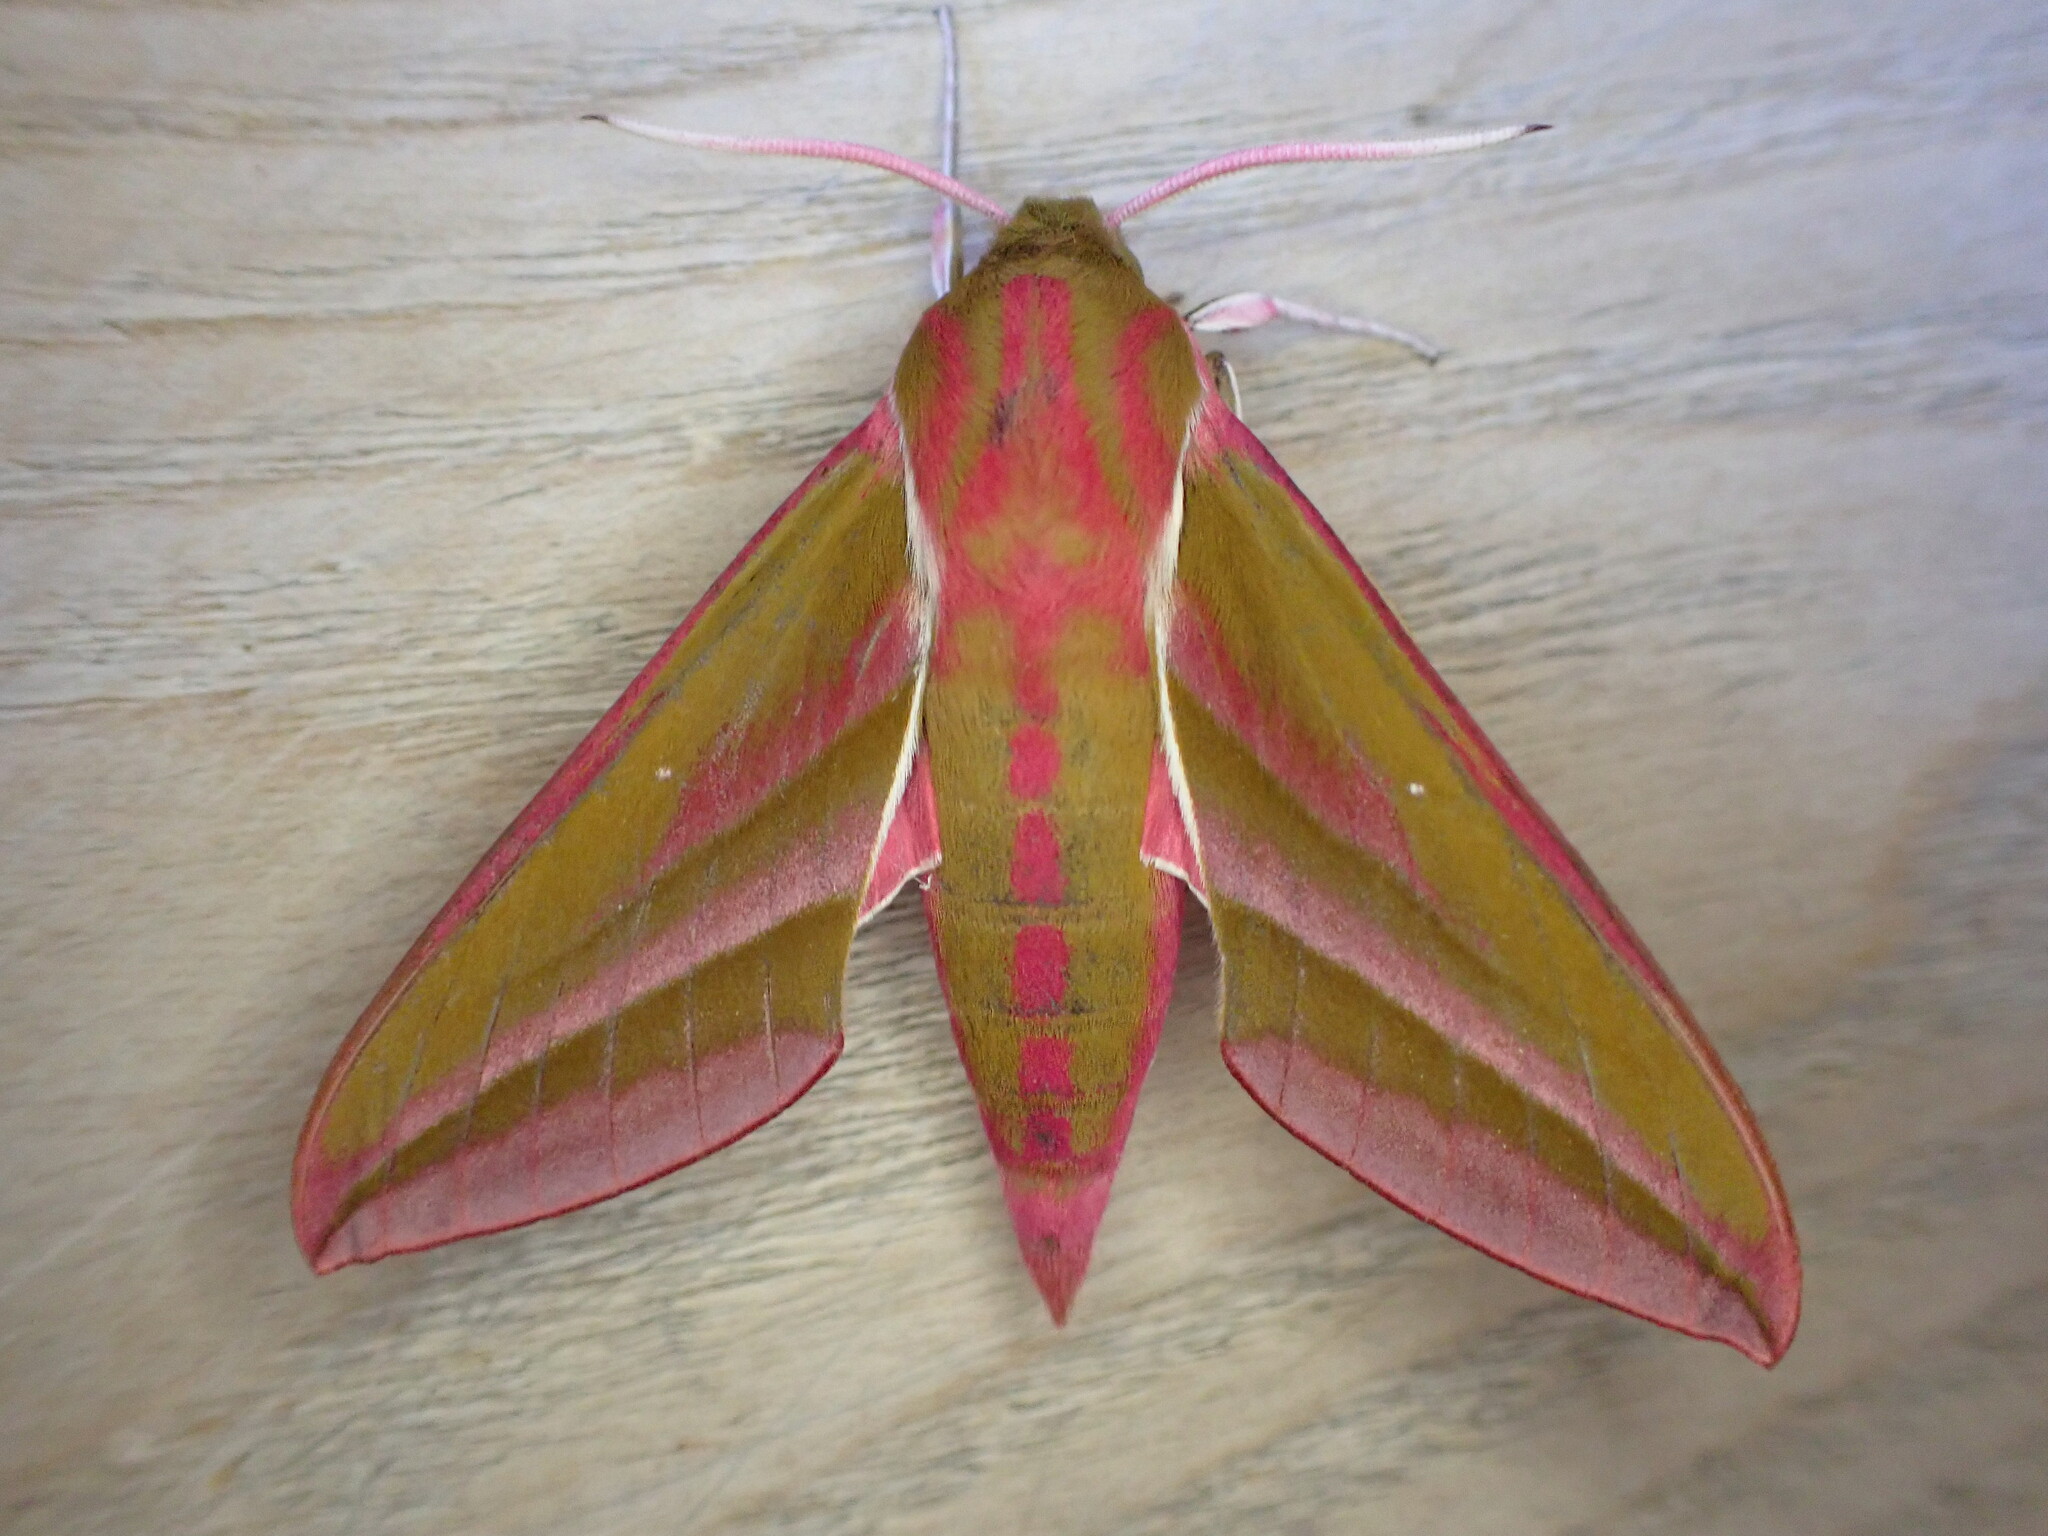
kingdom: Animalia
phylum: Arthropoda
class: Insecta
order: Lepidoptera
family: Sphingidae
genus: Deilephila
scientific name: Deilephila elpenor
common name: Elephant hawk-moth
